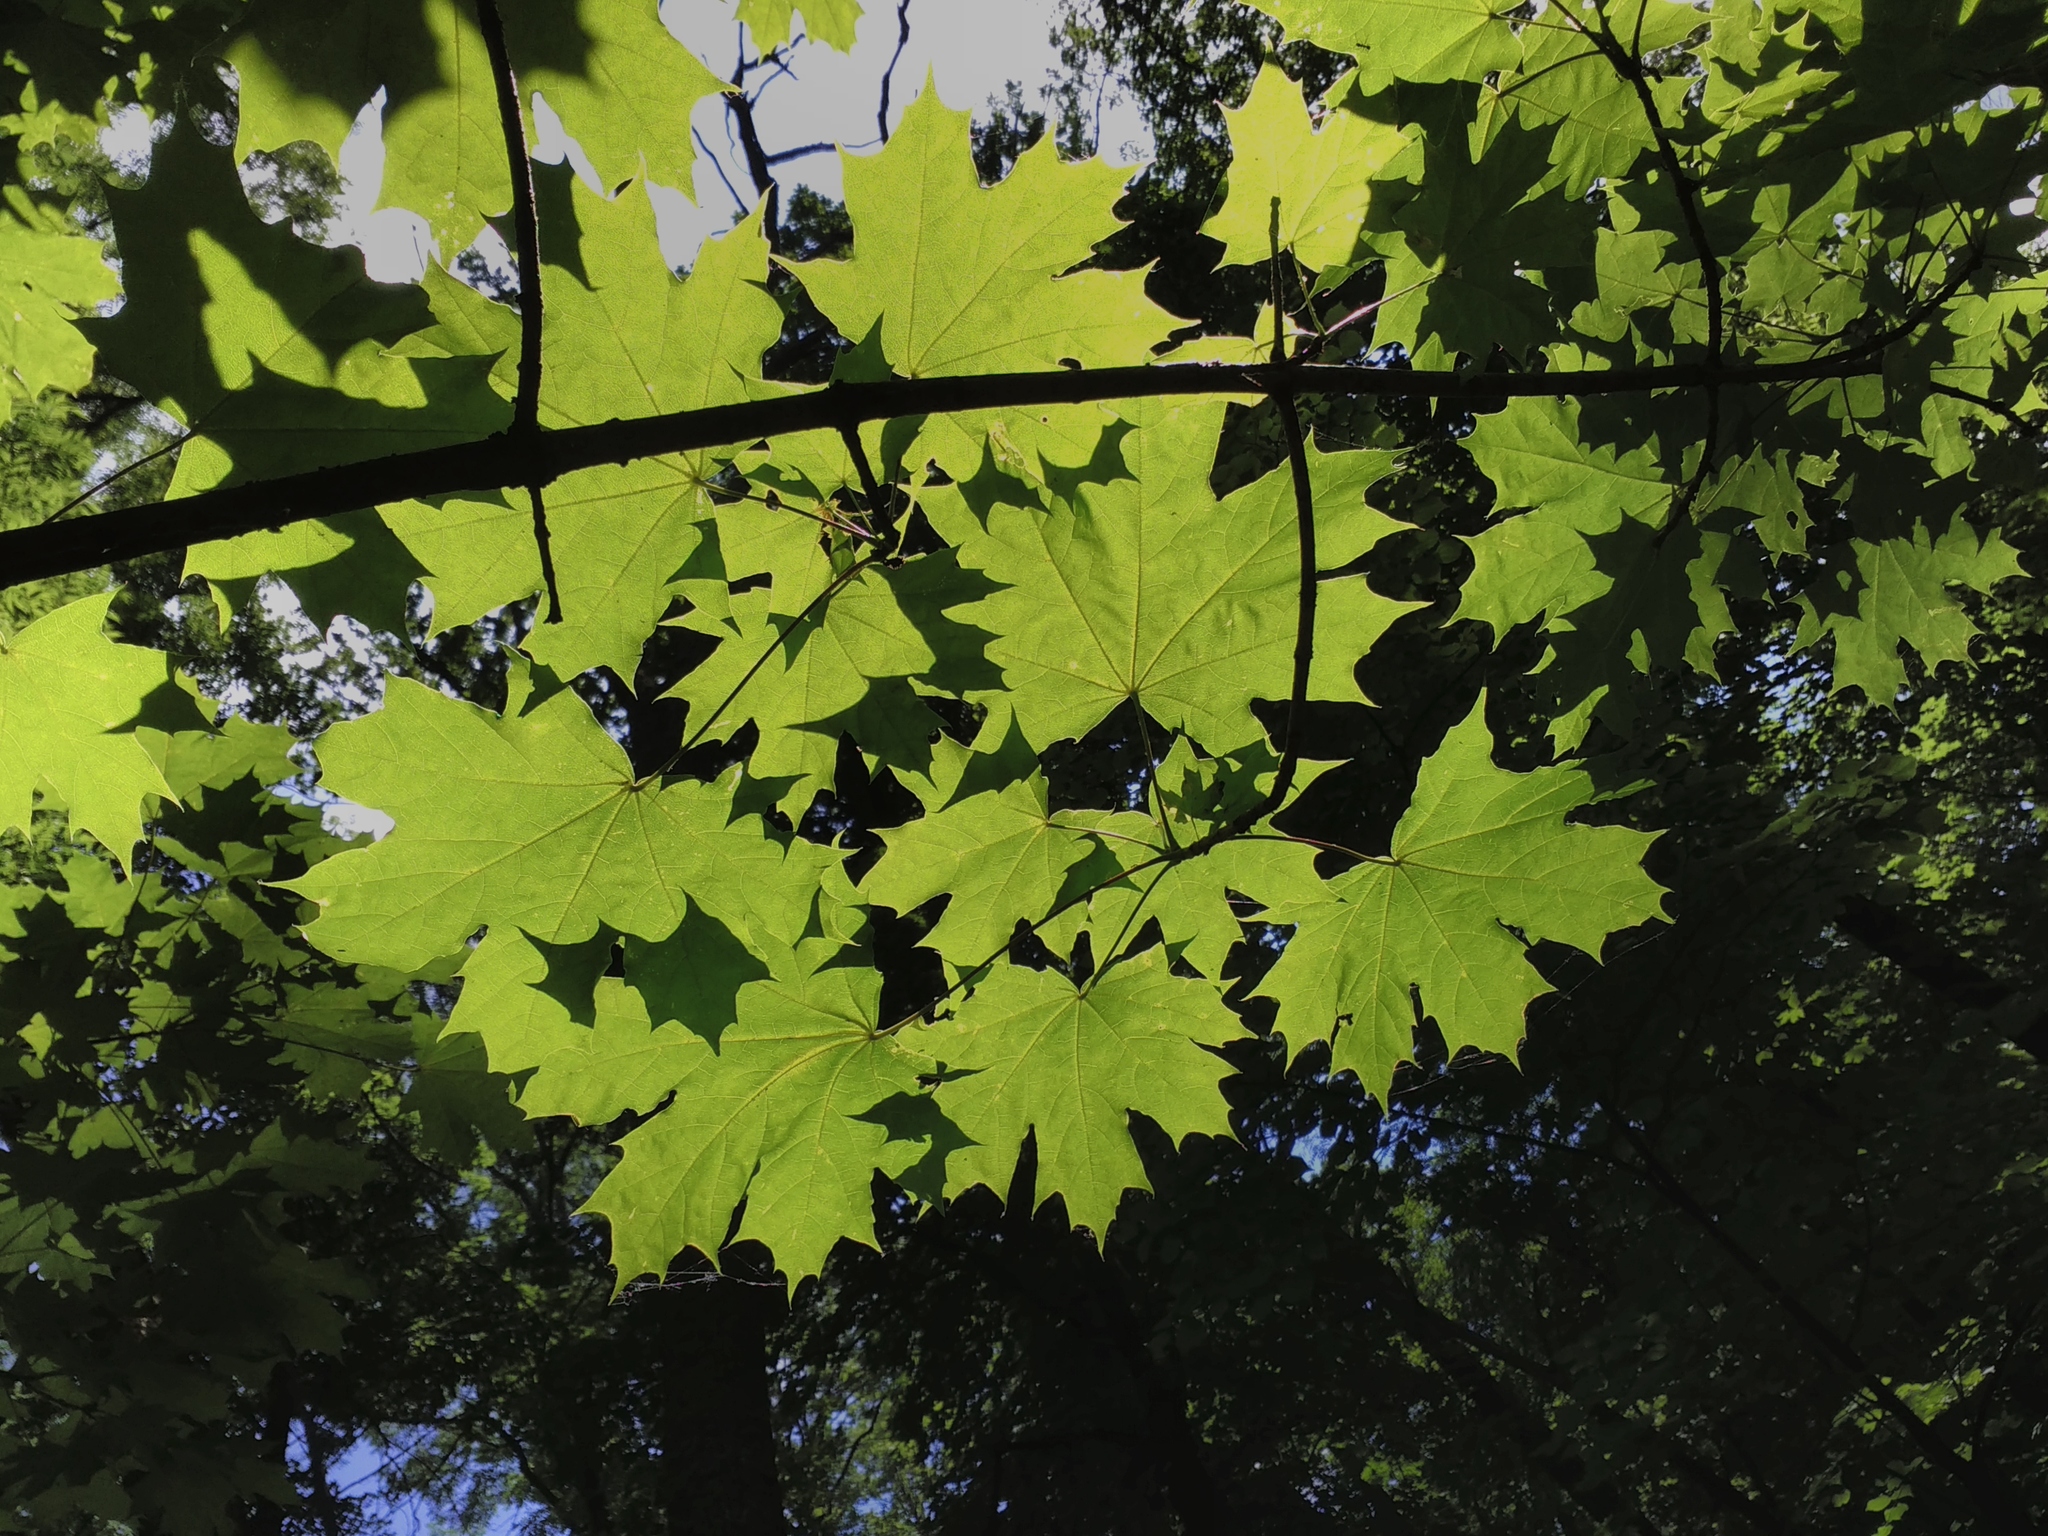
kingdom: Plantae
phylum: Tracheophyta
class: Magnoliopsida
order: Sapindales
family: Sapindaceae
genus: Acer
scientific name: Acer platanoides
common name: Norway maple
